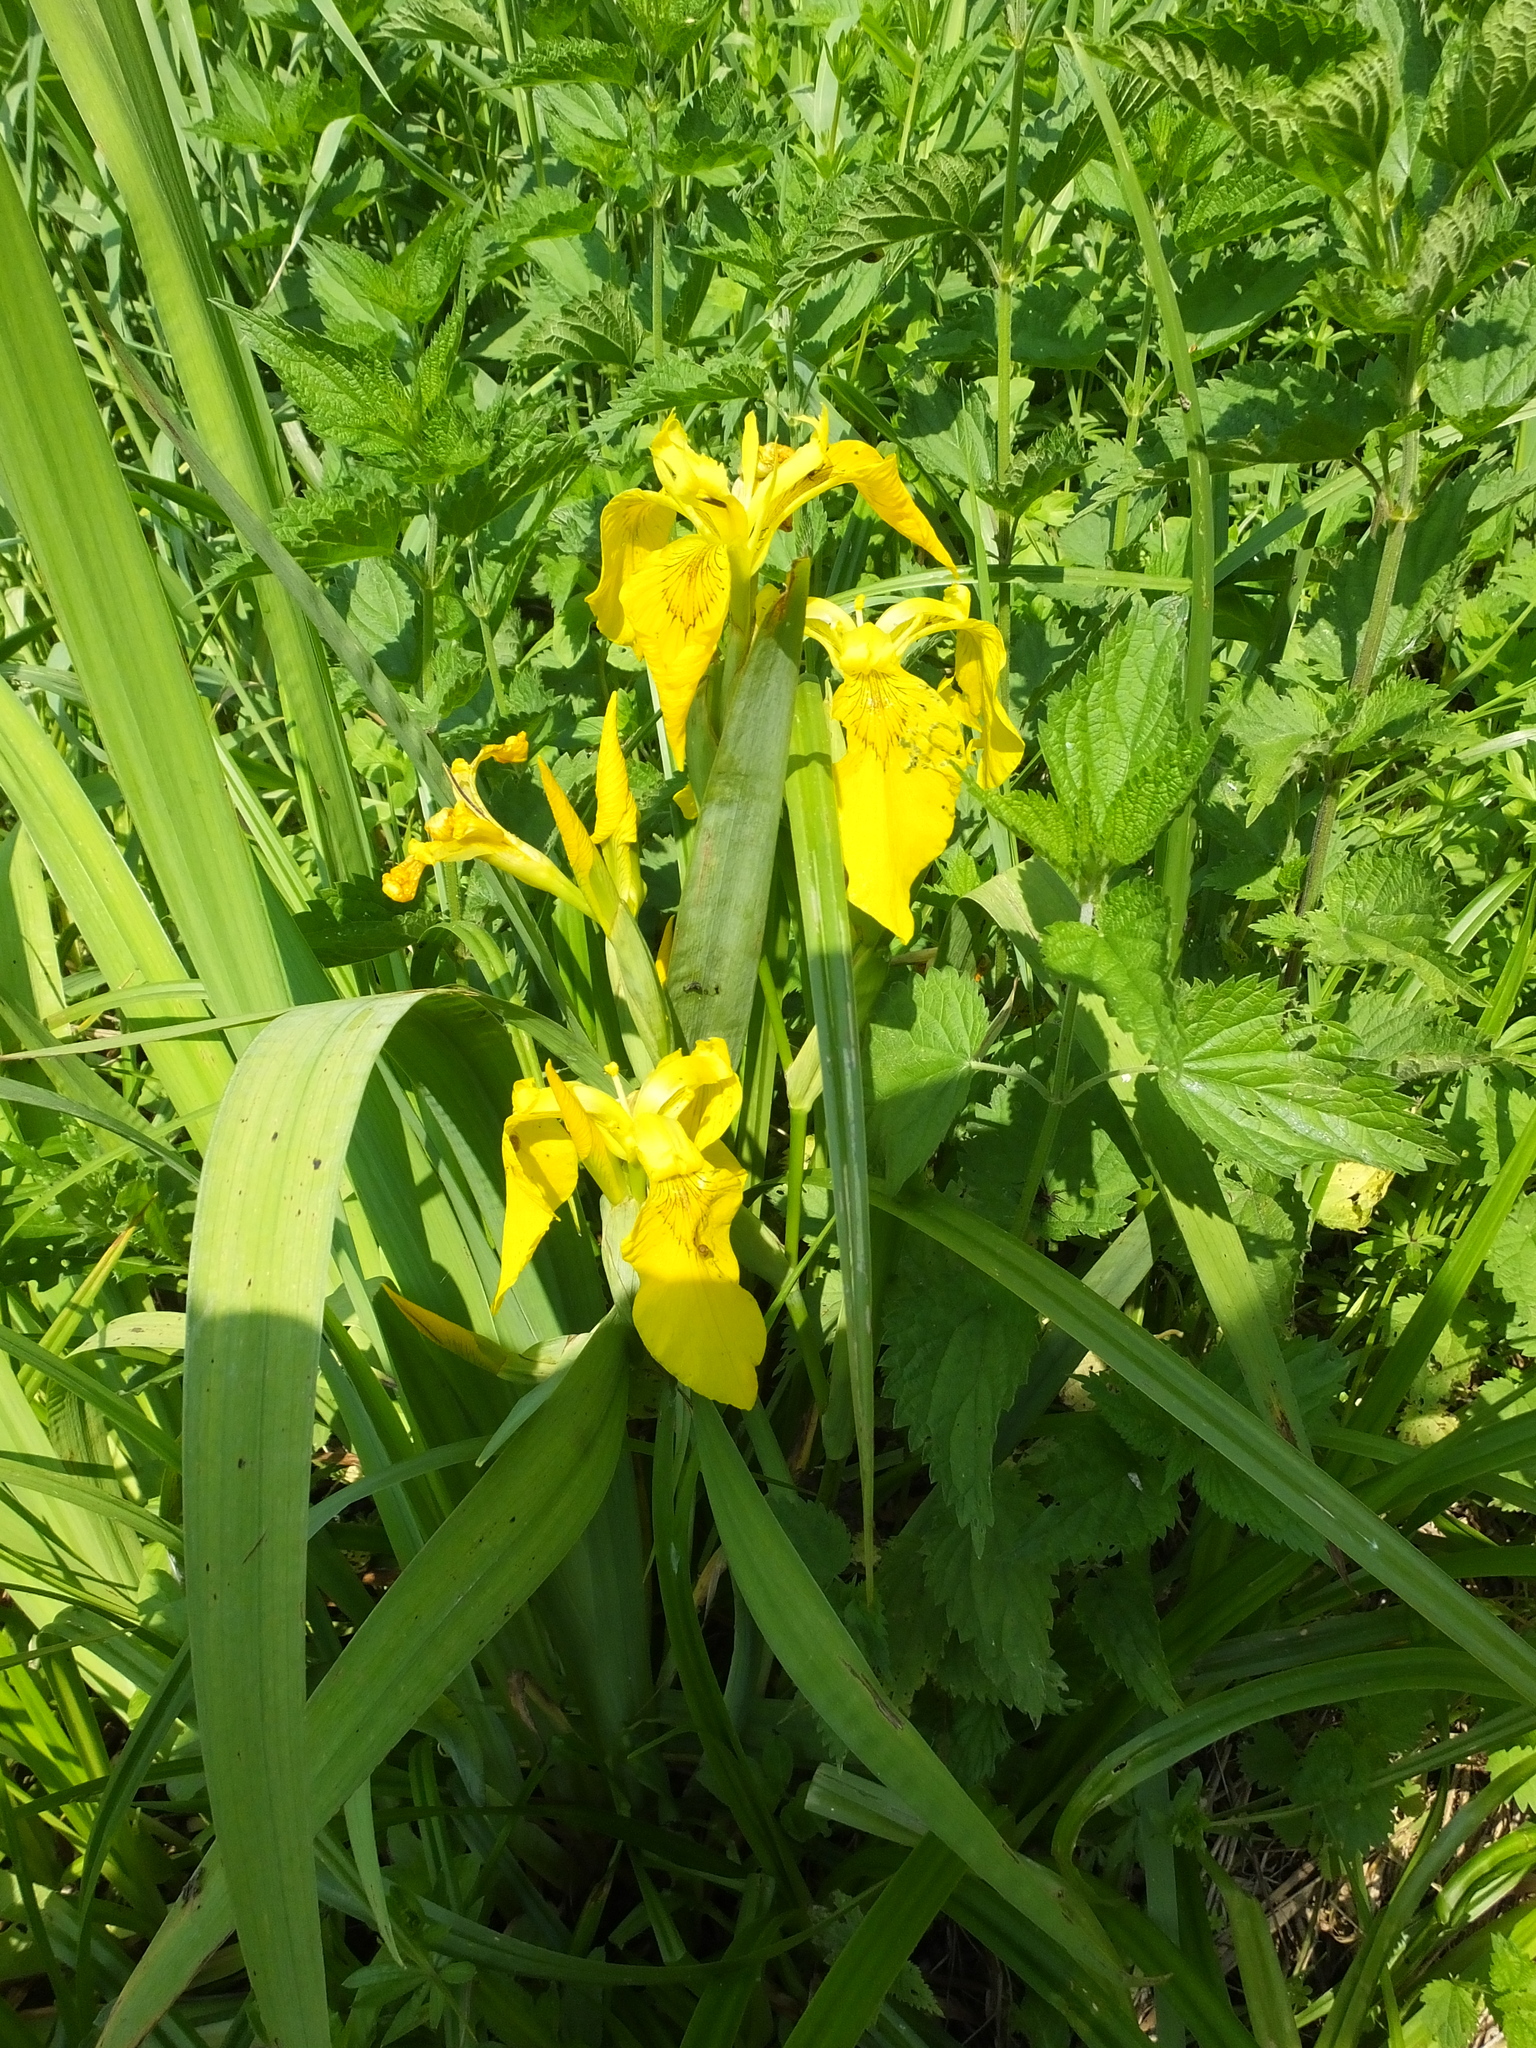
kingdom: Plantae
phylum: Tracheophyta
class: Liliopsida
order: Asparagales
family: Iridaceae
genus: Iris
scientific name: Iris pseudacorus
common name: Yellow flag
